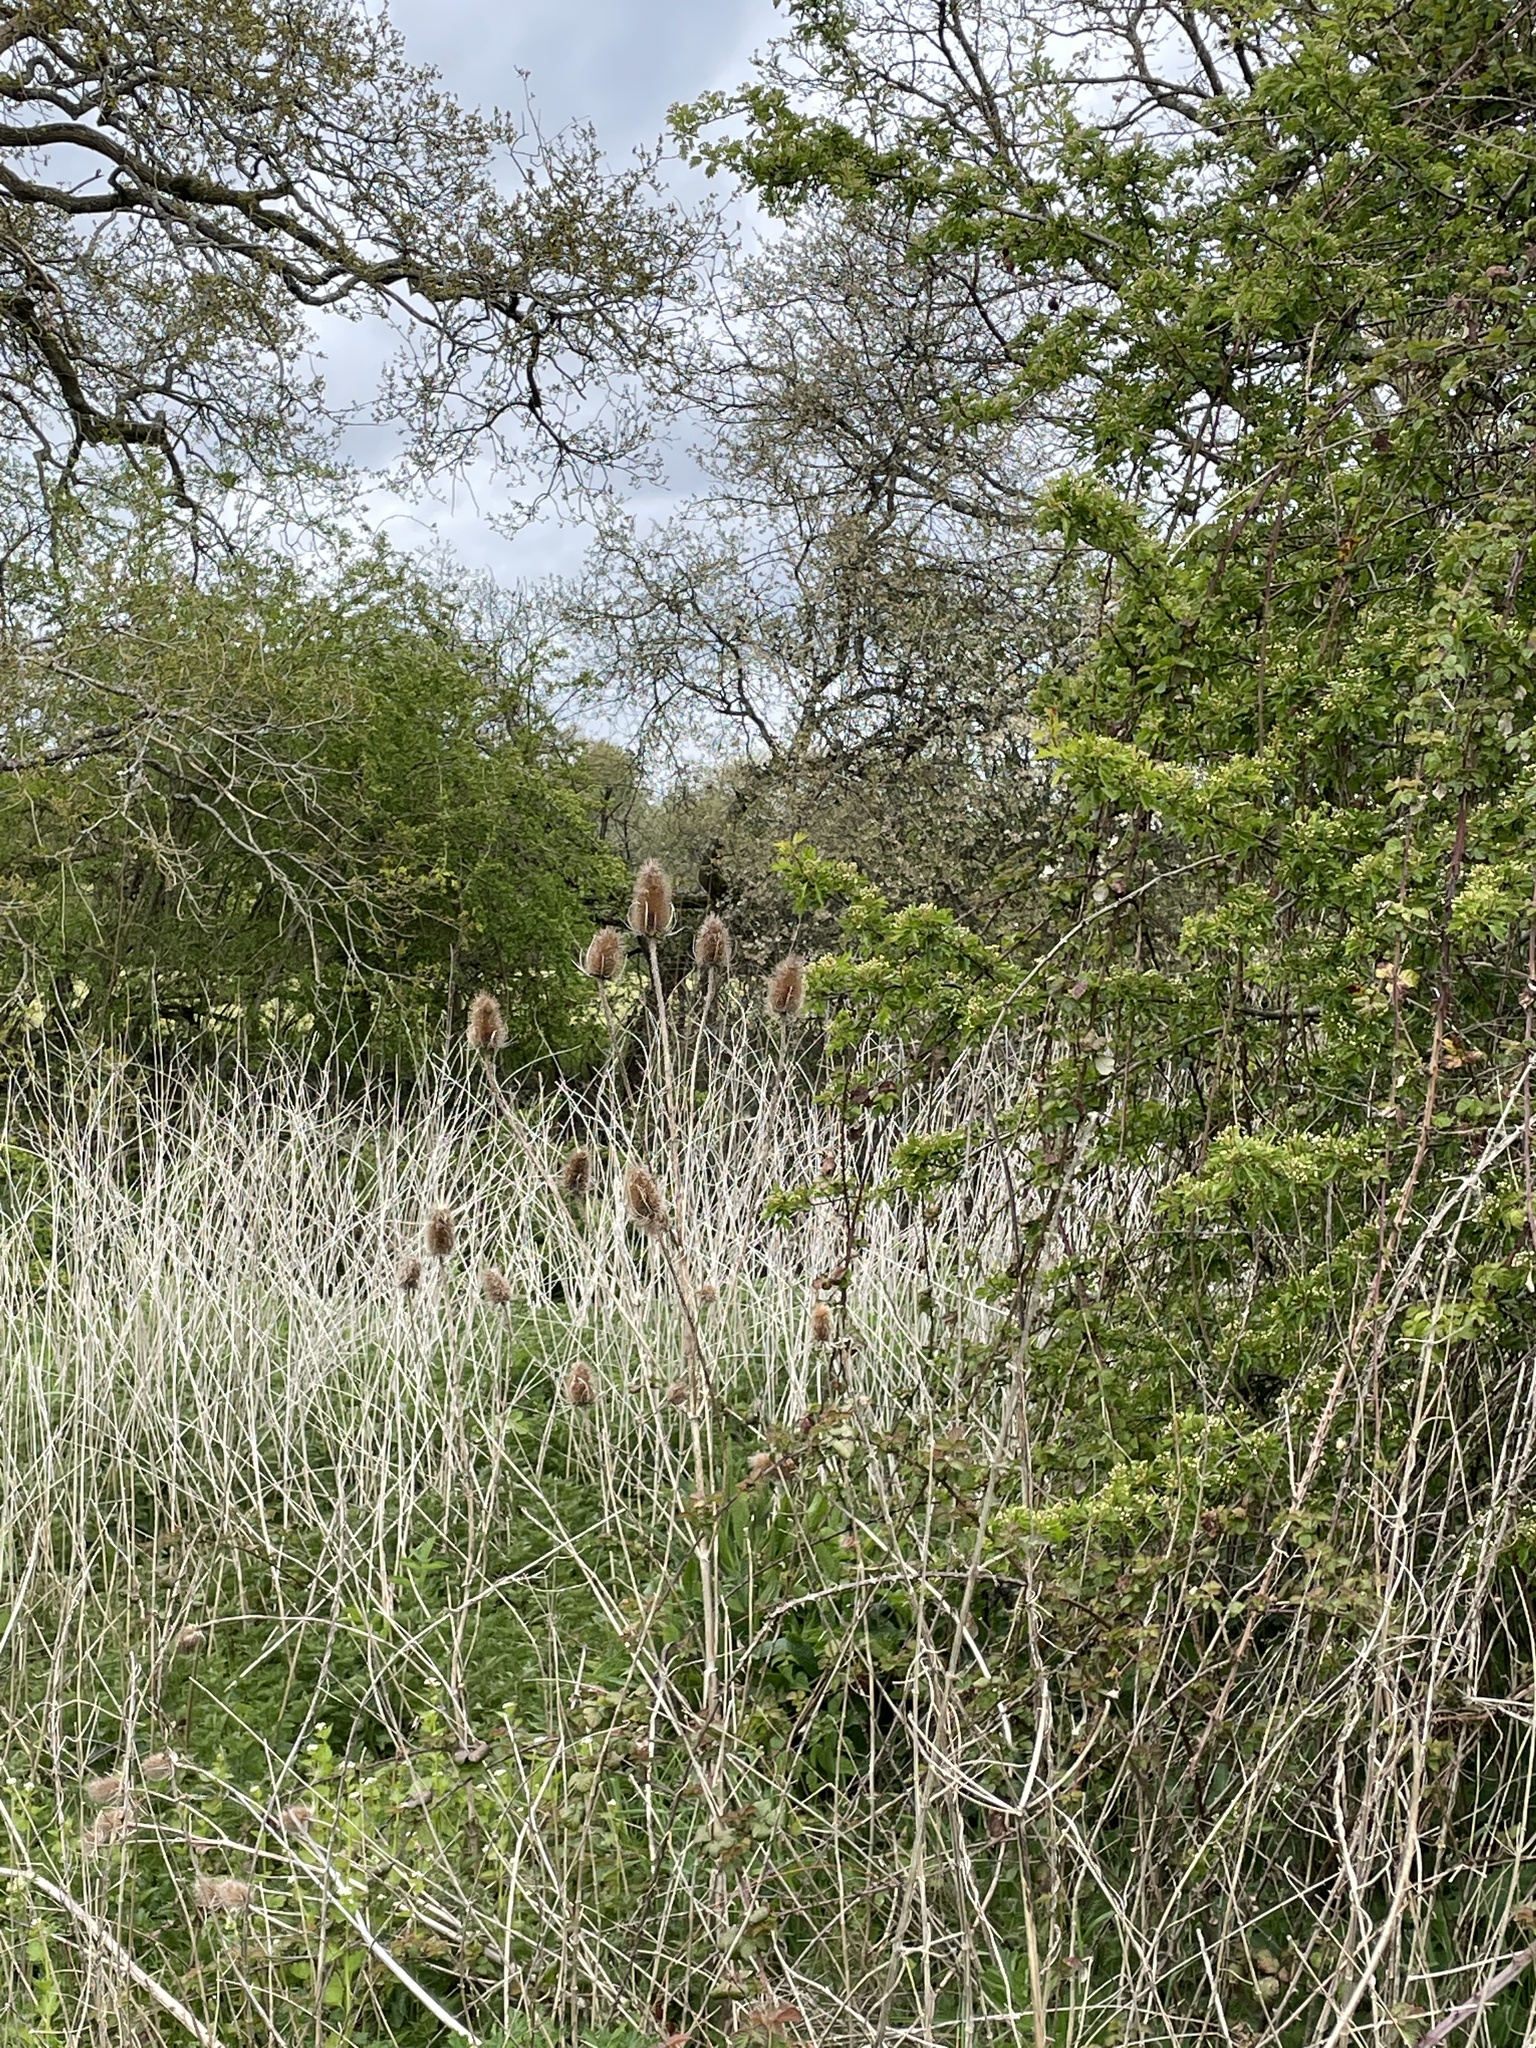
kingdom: Plantae
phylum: Tracheophyta
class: Magnoliopsida
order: Dipsacales
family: Caprifoliaceae
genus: Dipsacus
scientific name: Dipsacus fullonum
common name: Teasel
